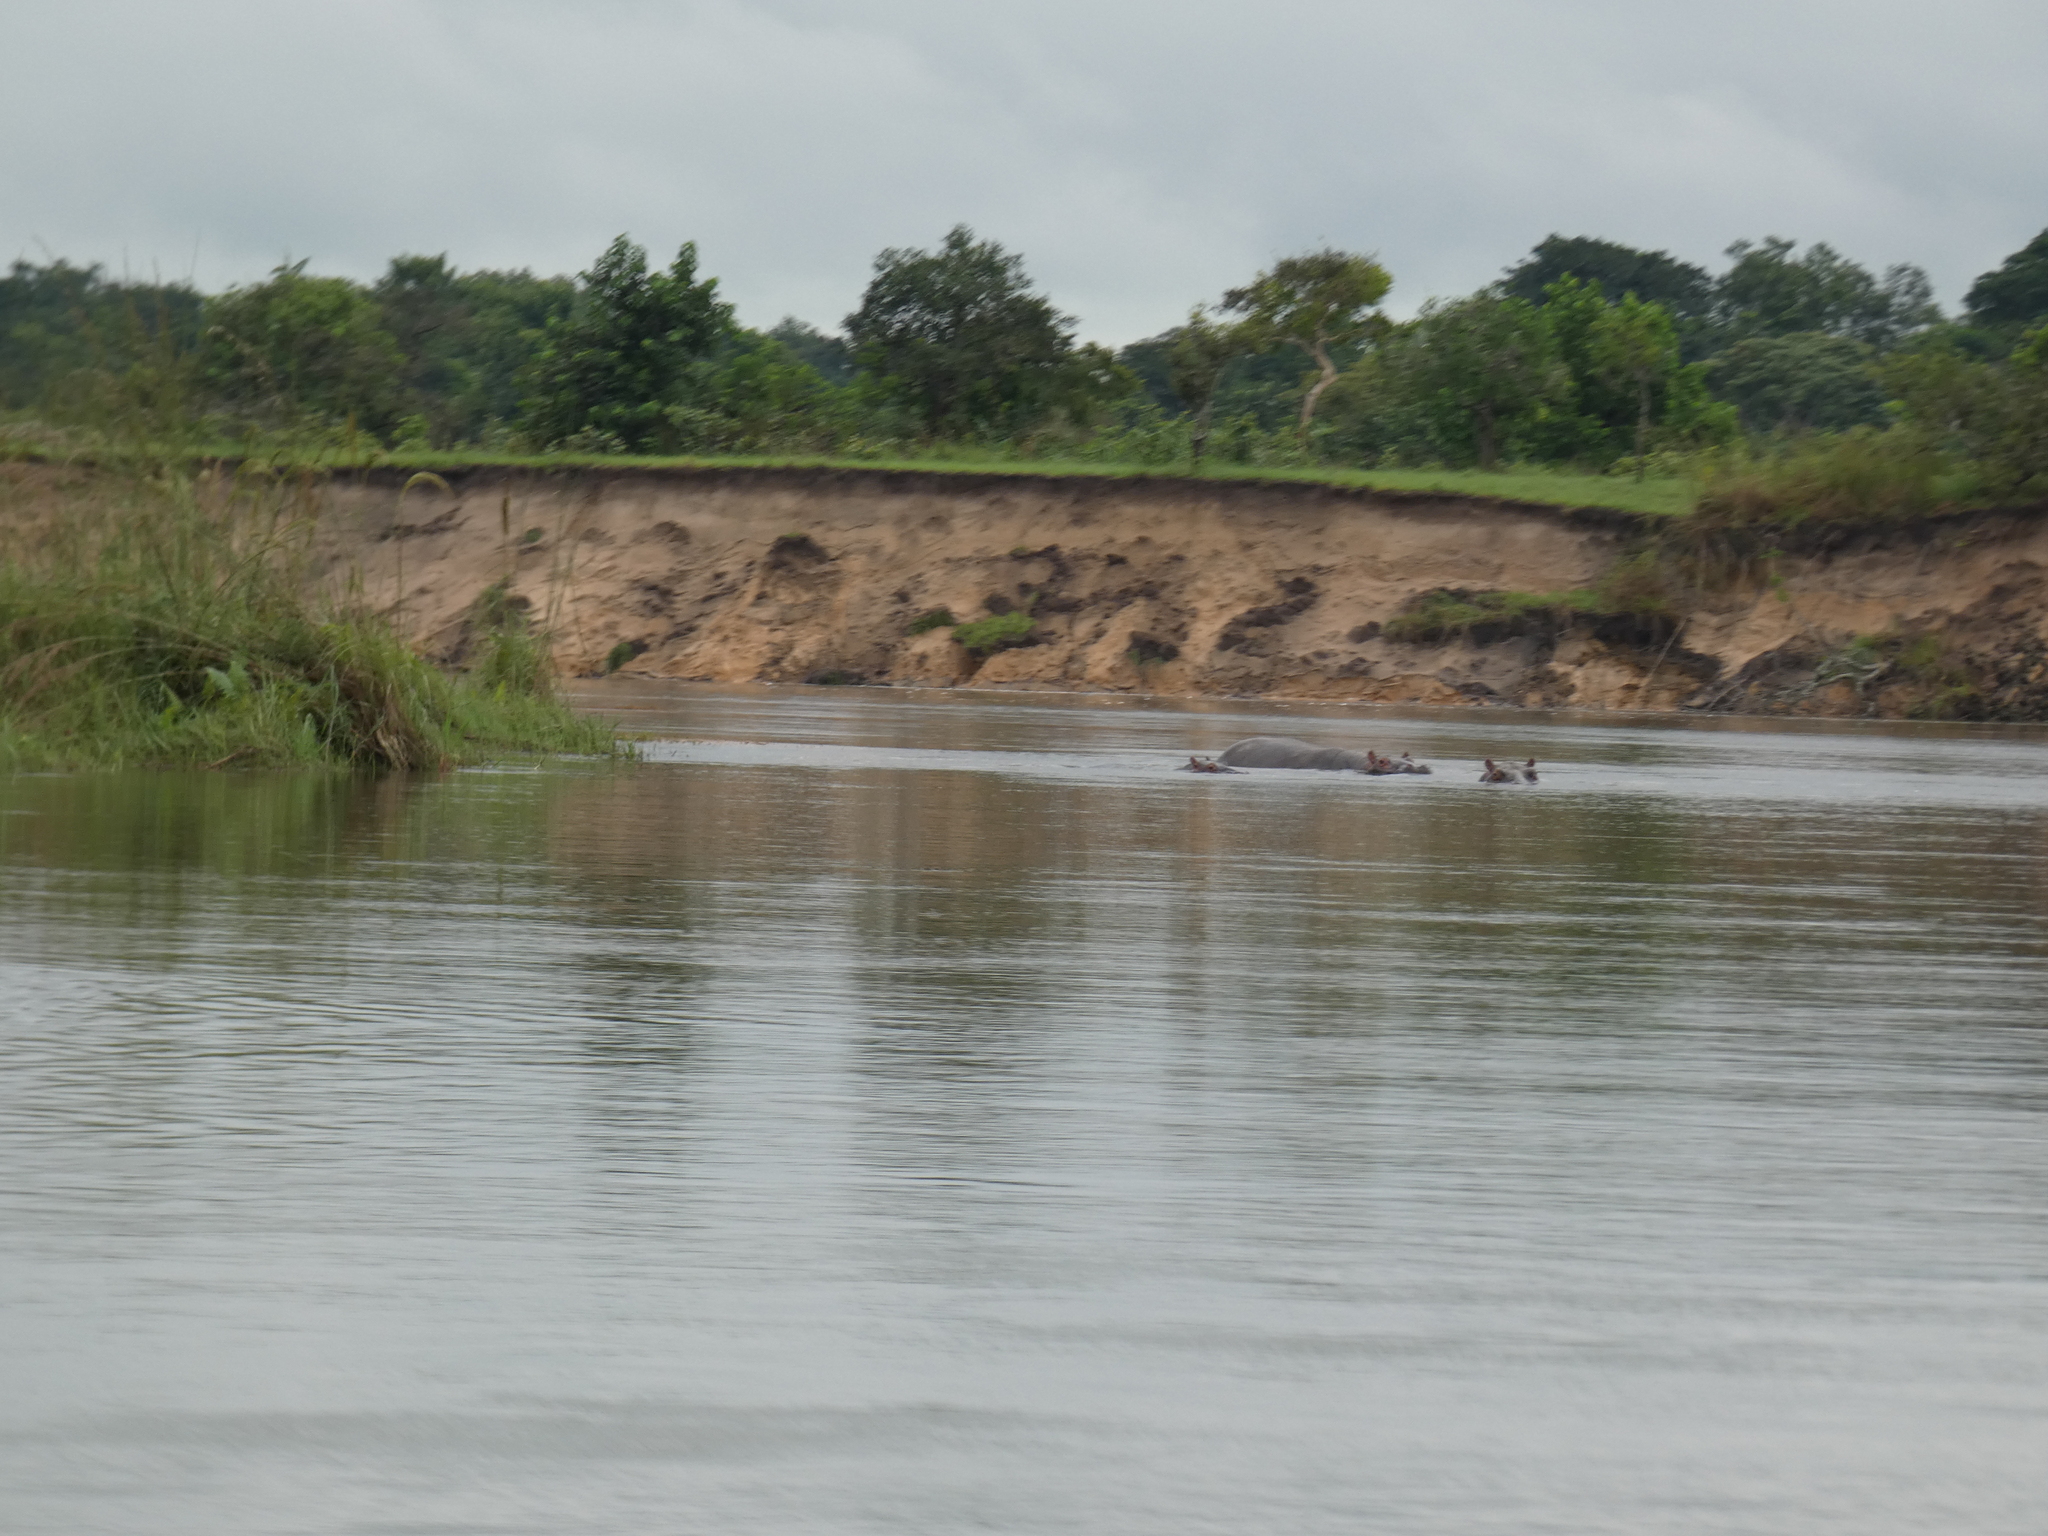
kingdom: Animalia
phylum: Chordata
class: Mammalia
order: Artiodactyla
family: Hippopotamidae
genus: Hippopotamus
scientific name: Hippopotamus amphibius
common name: Common hippopotamus
